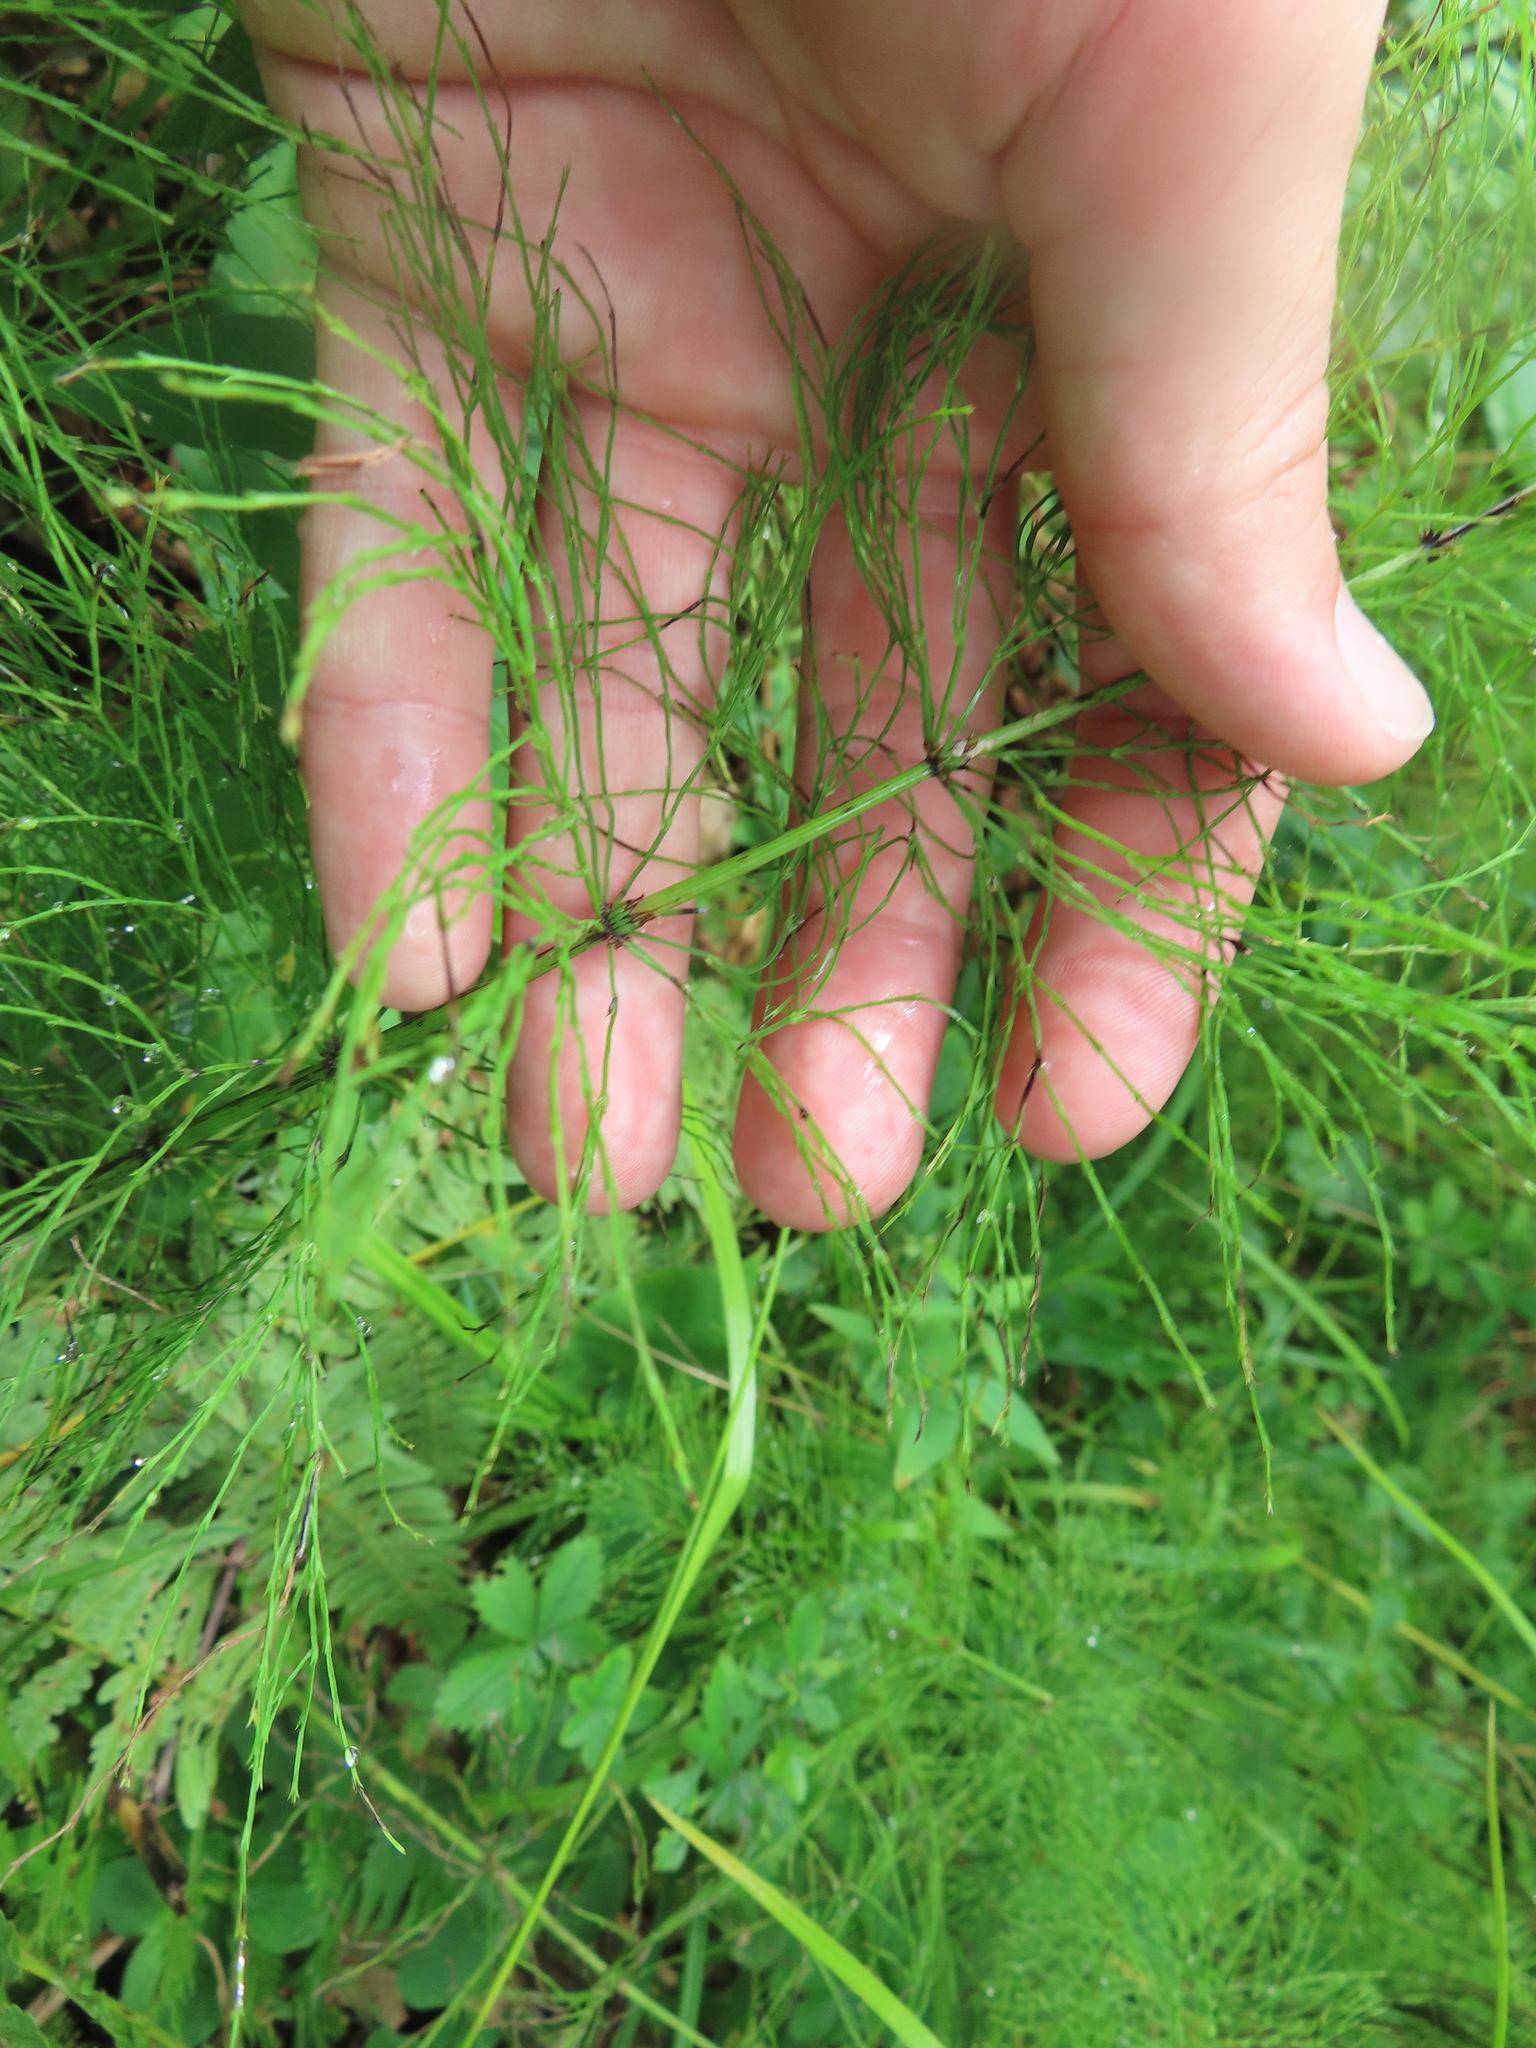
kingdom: Plantae
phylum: Tracheophyta
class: Polypodiopsida
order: Equisetales
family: Equisetaceae
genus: Equisetum
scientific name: Equisetum sylvaticum
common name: Wood horsetail
